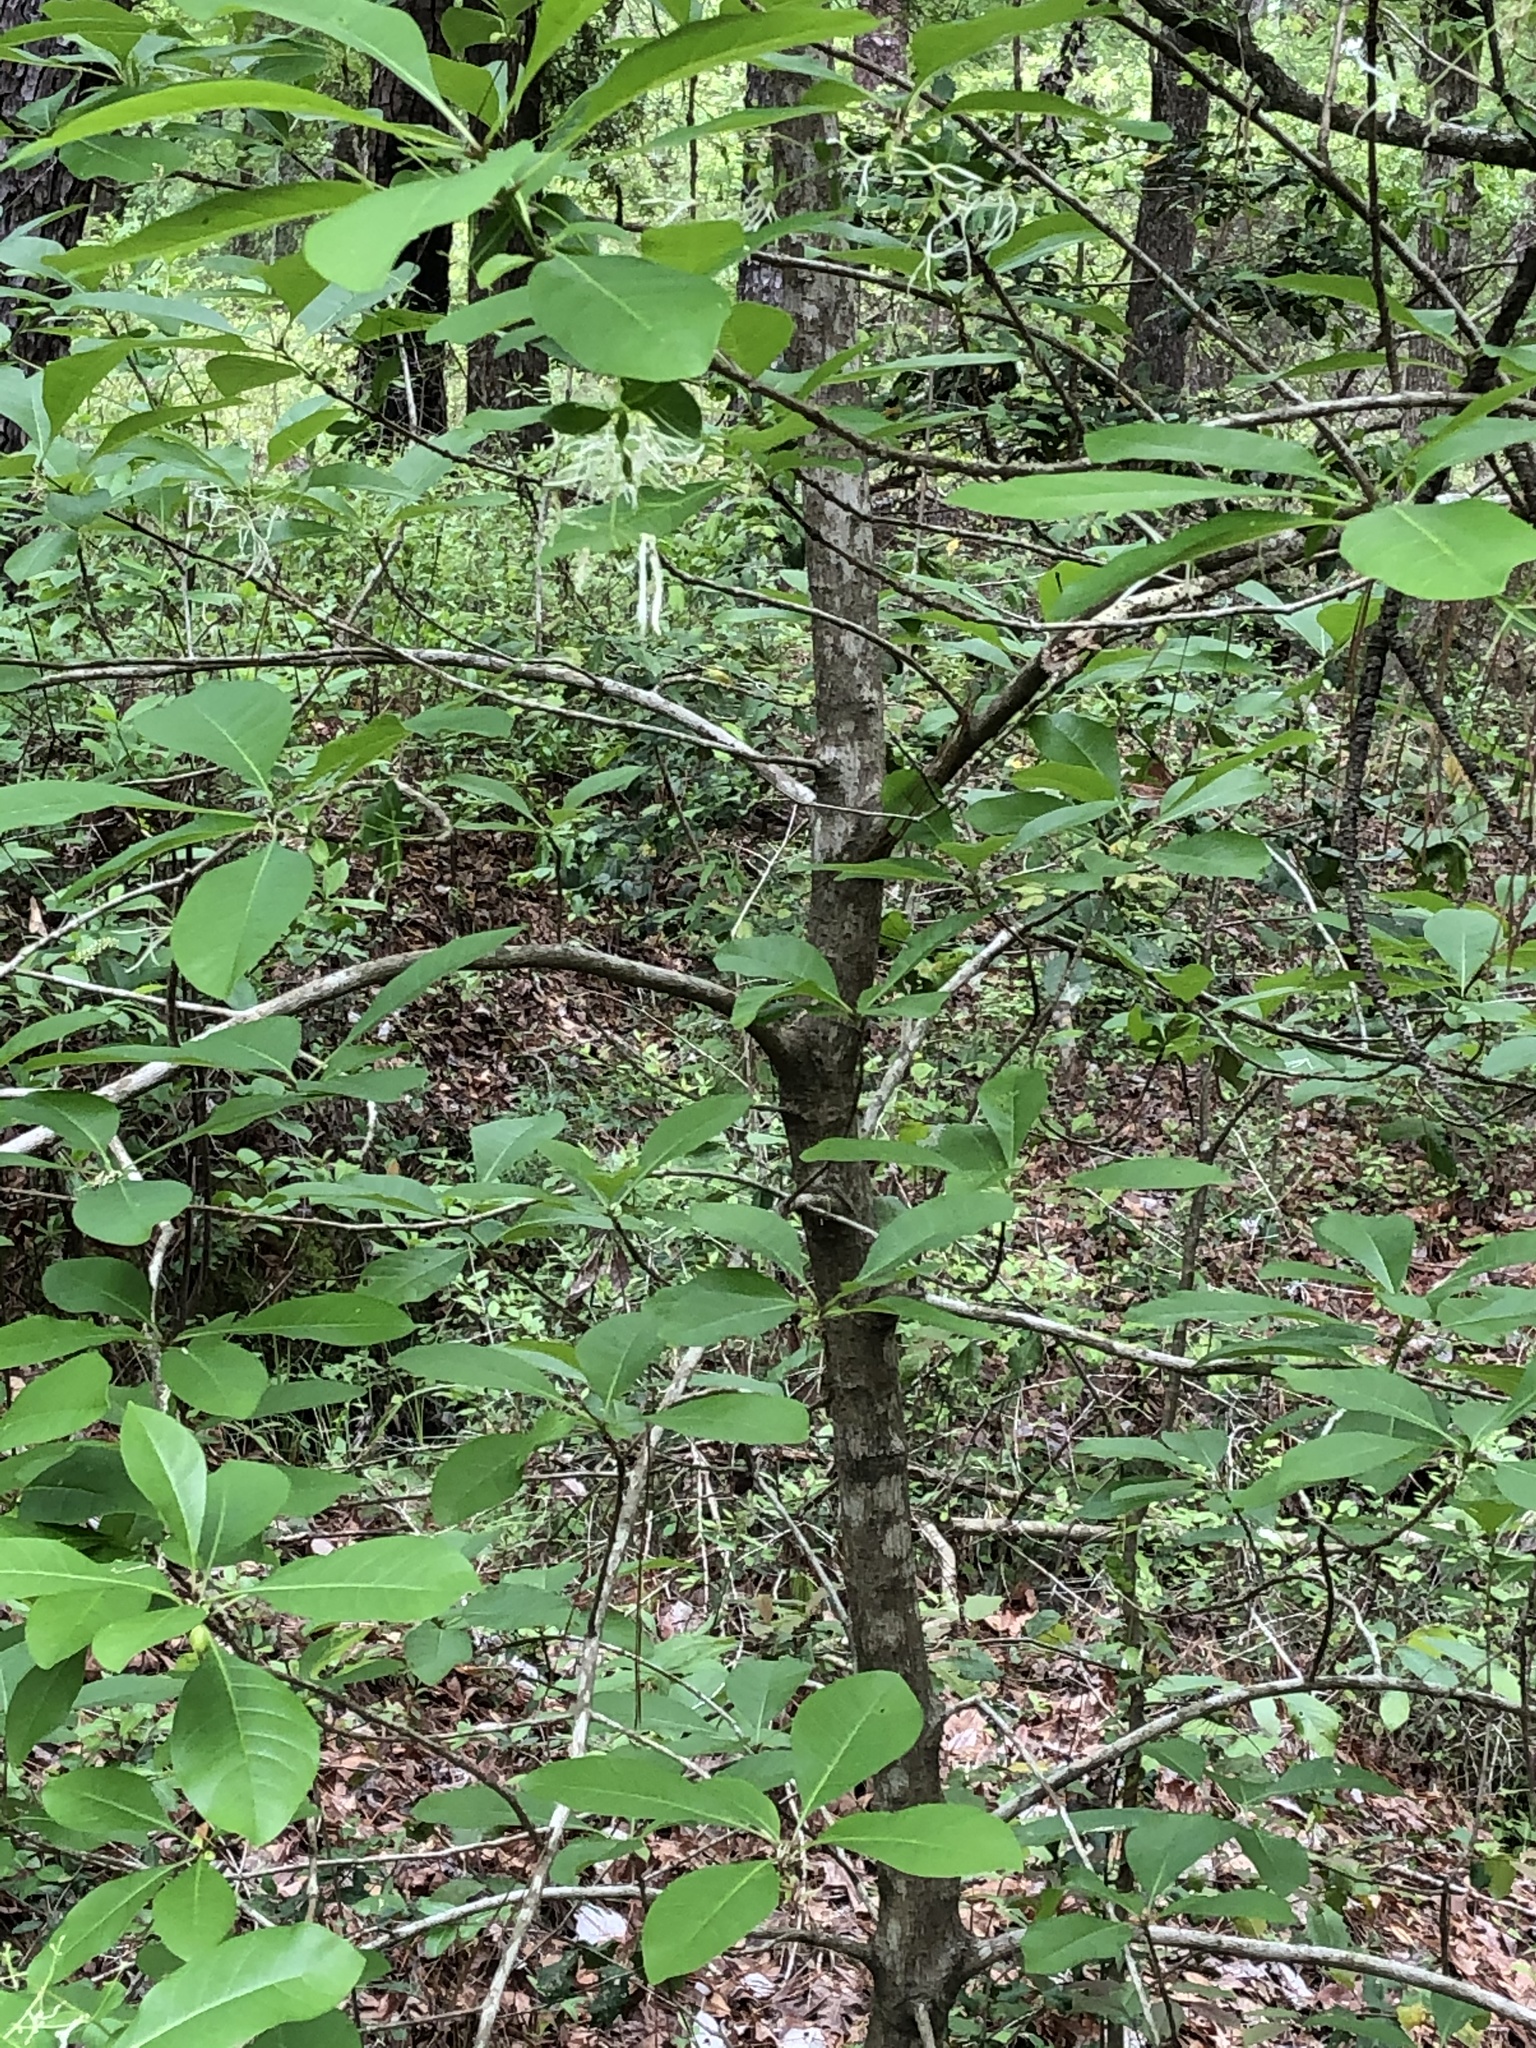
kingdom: Plantae
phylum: Tracheophyta
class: Magnoliopsida
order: Lamiales
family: Oleaceae
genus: Chionanthus
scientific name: Chionanthus virginicus
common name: American fringetree
